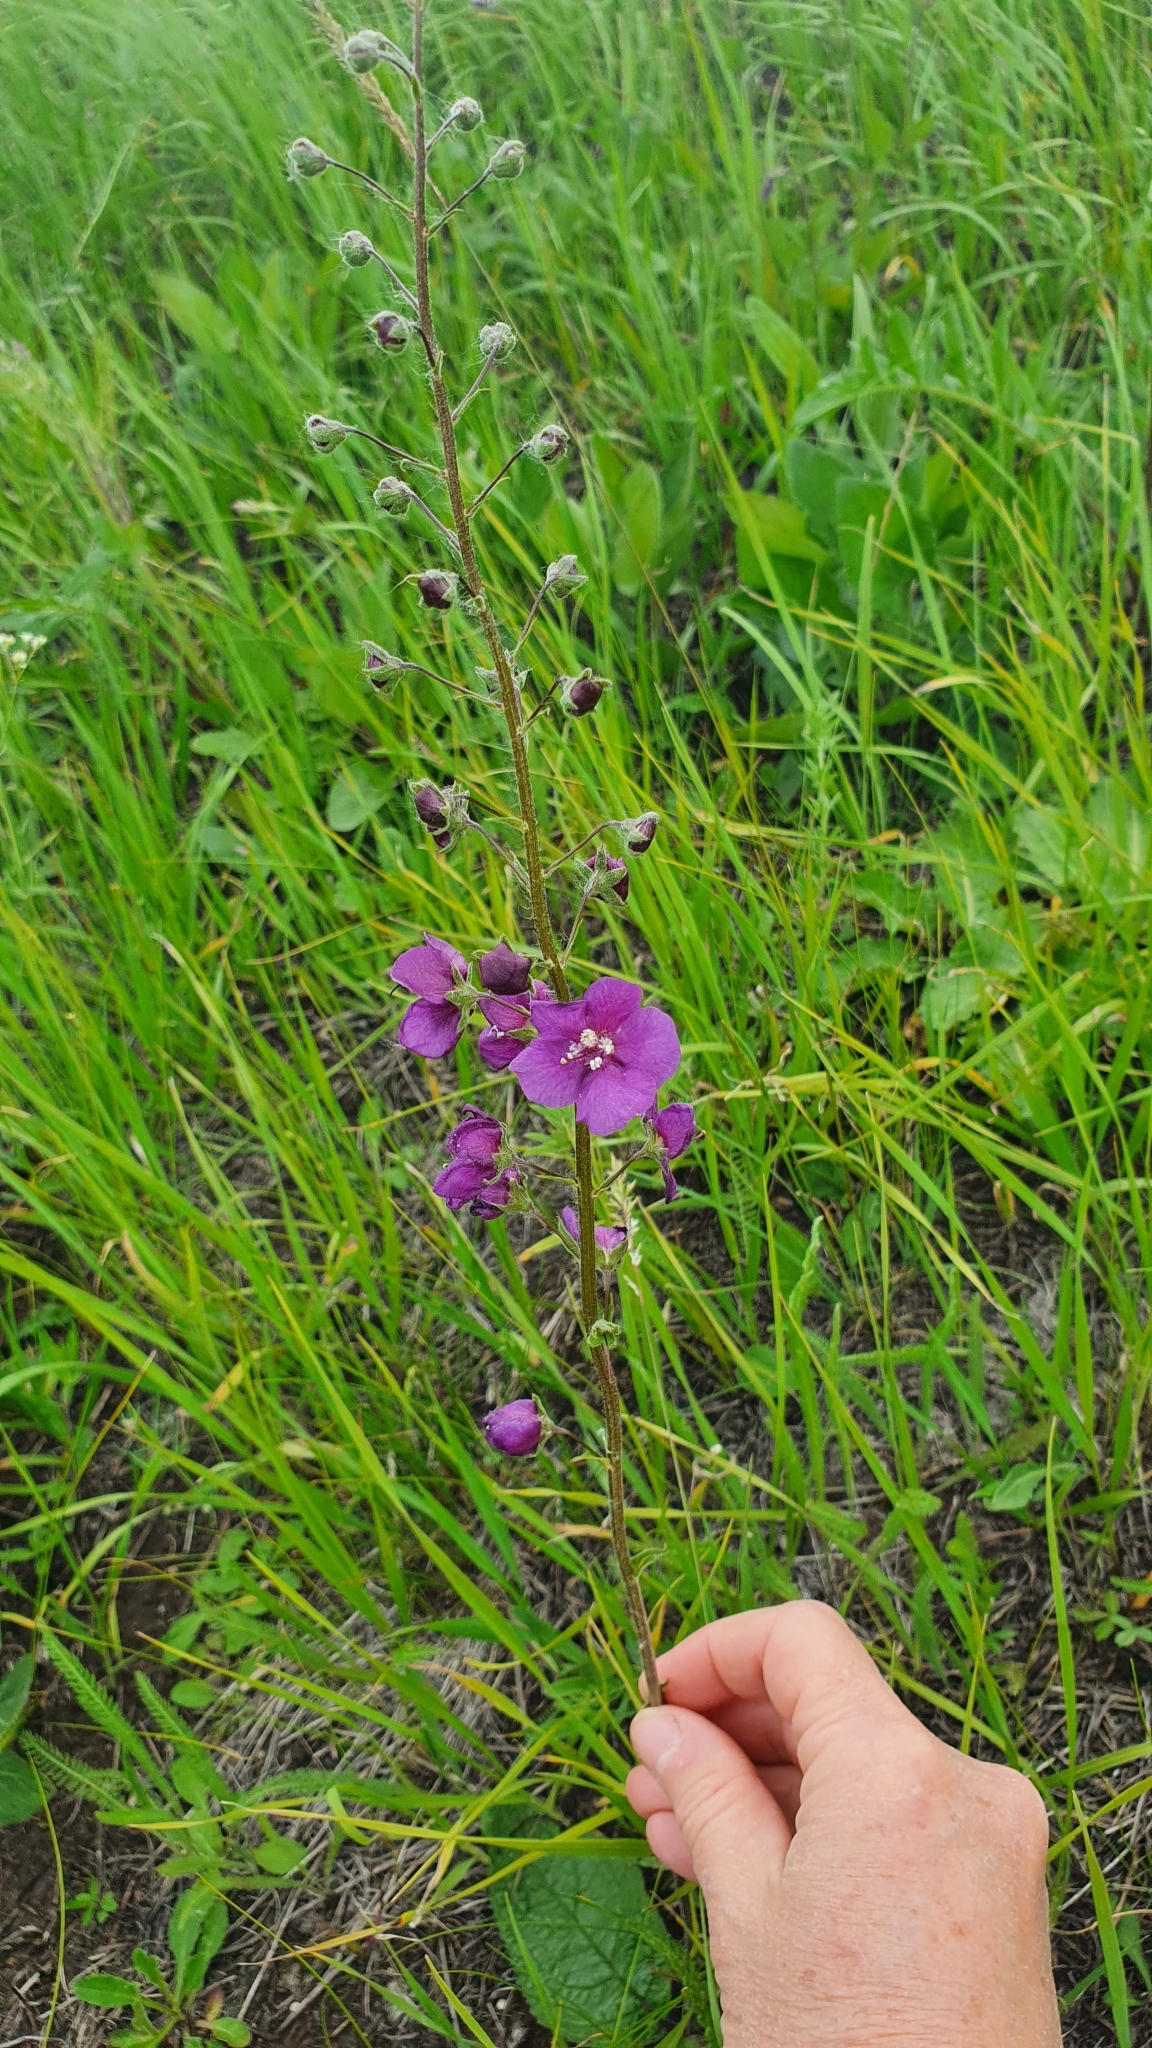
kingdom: Plantae
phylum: Tracheophyta
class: Magnoliopsida
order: Lamiales
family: Scrophulariaceae
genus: Verbascum
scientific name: Verbascum phoeniceum
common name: Purple mullein
